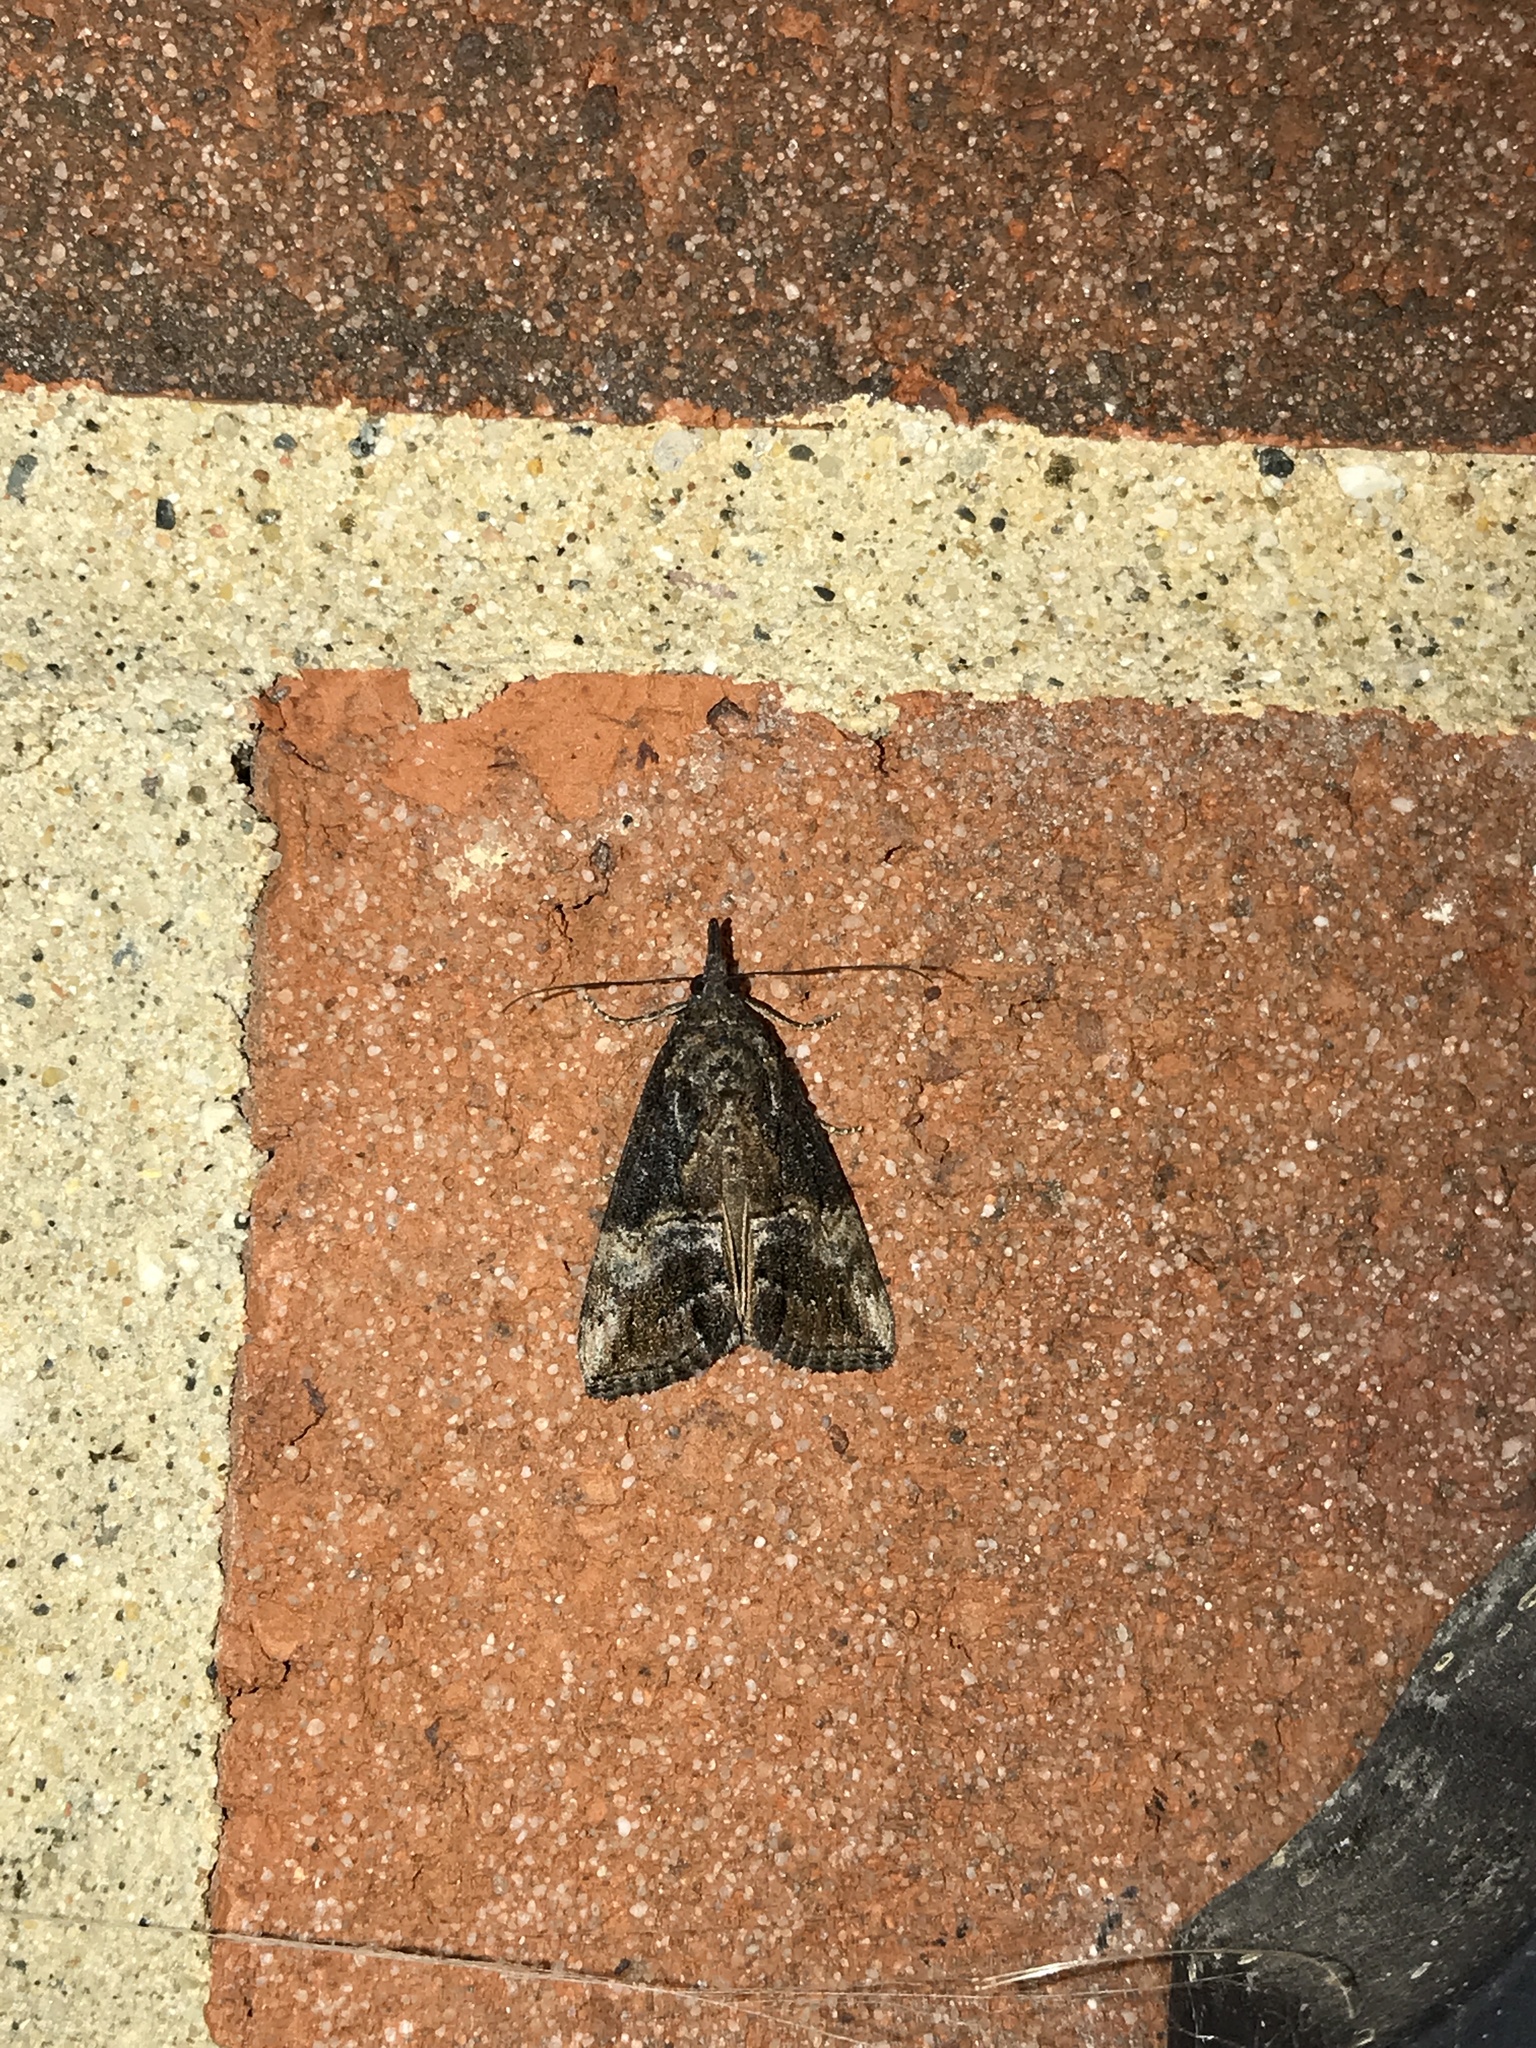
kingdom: Animalia
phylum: Arthropoda
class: Insecta
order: Lepidoptera
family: Erebidae
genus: Hypena
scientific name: Hypena scabra
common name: Green cloverworm
